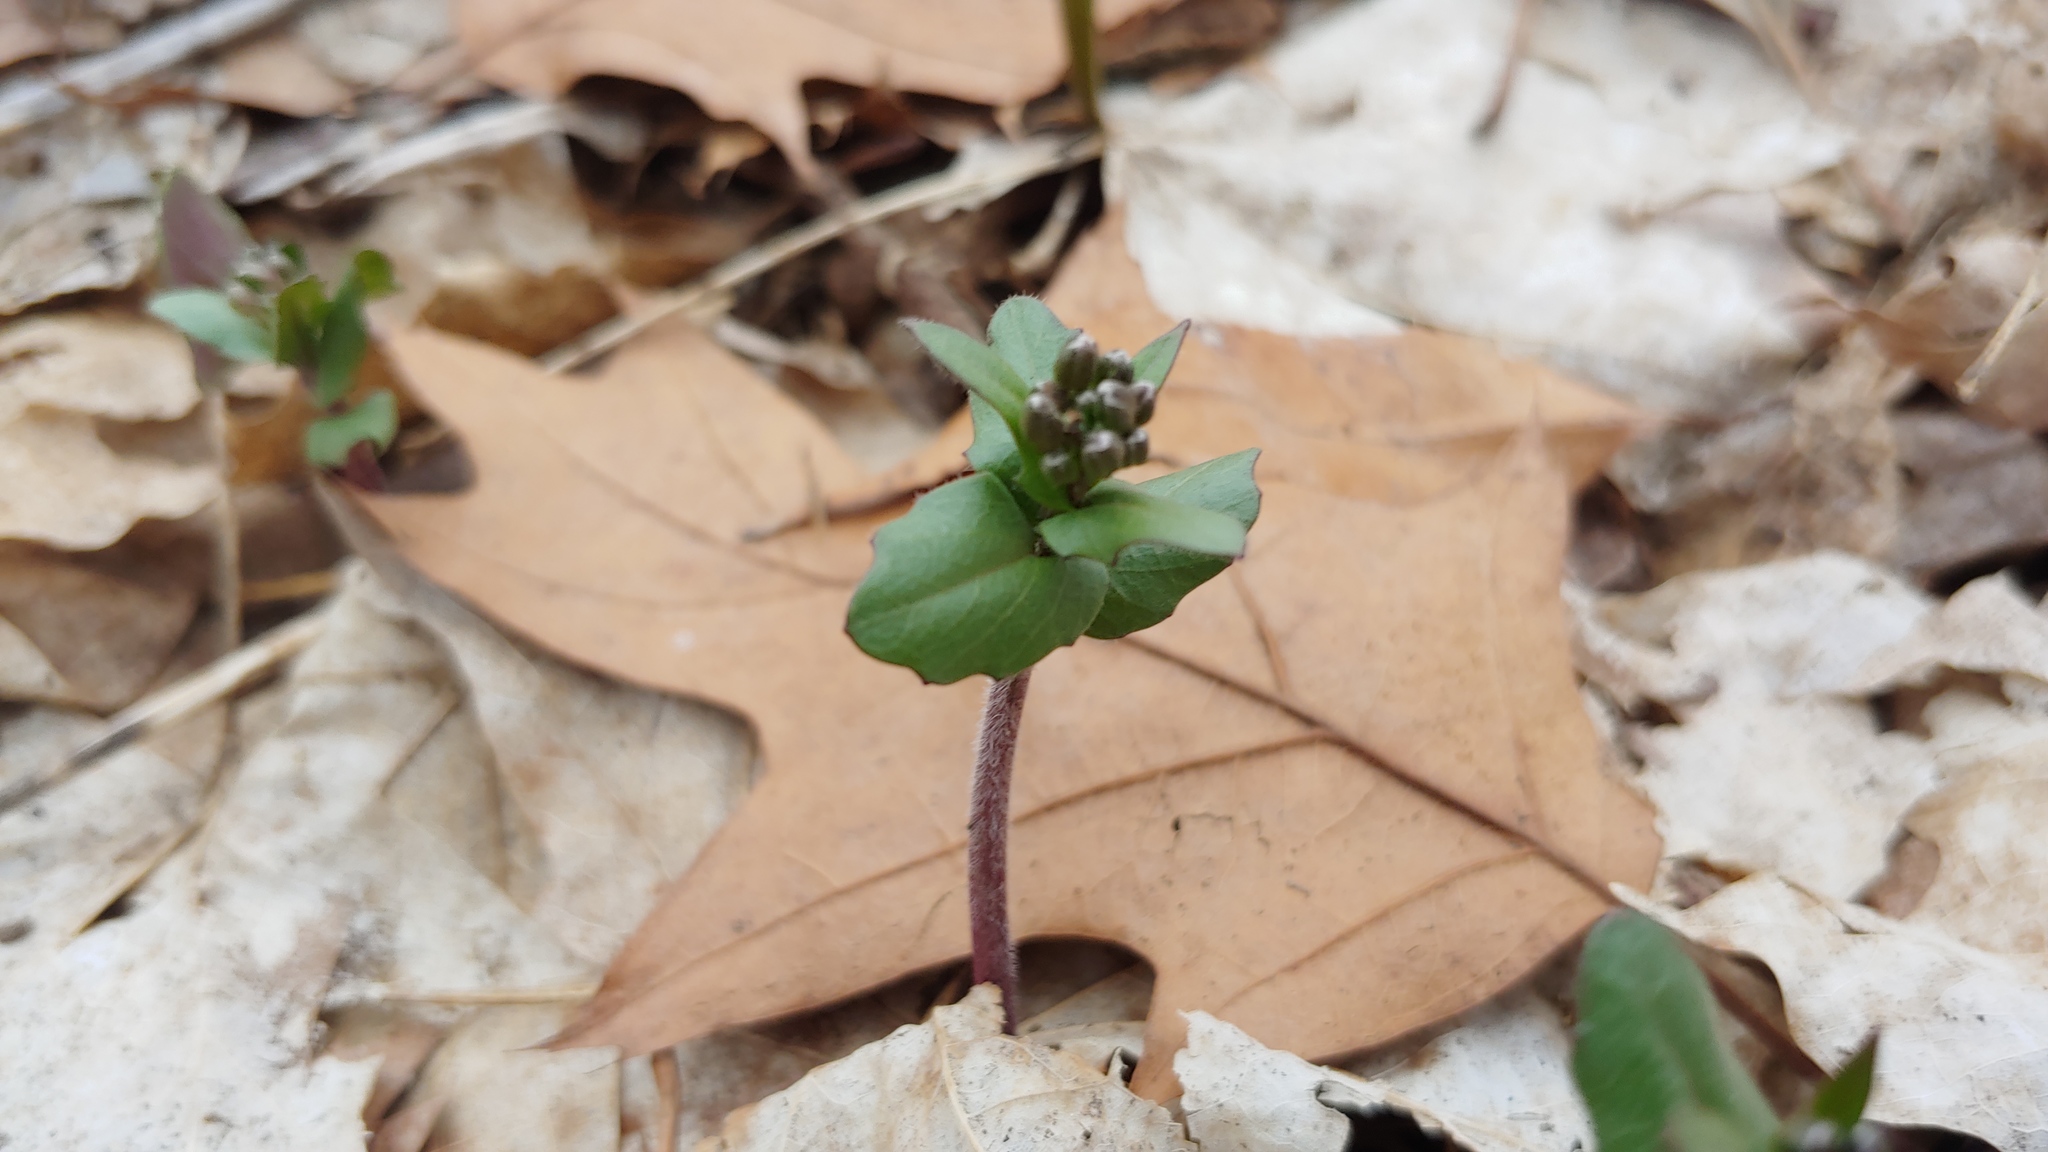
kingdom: Plantae
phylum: Tracheophyta
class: Magnoliopsida
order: Brassicales
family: Brassicaceae
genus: Cardamine
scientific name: Cardamine douglassii
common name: Purple cress
